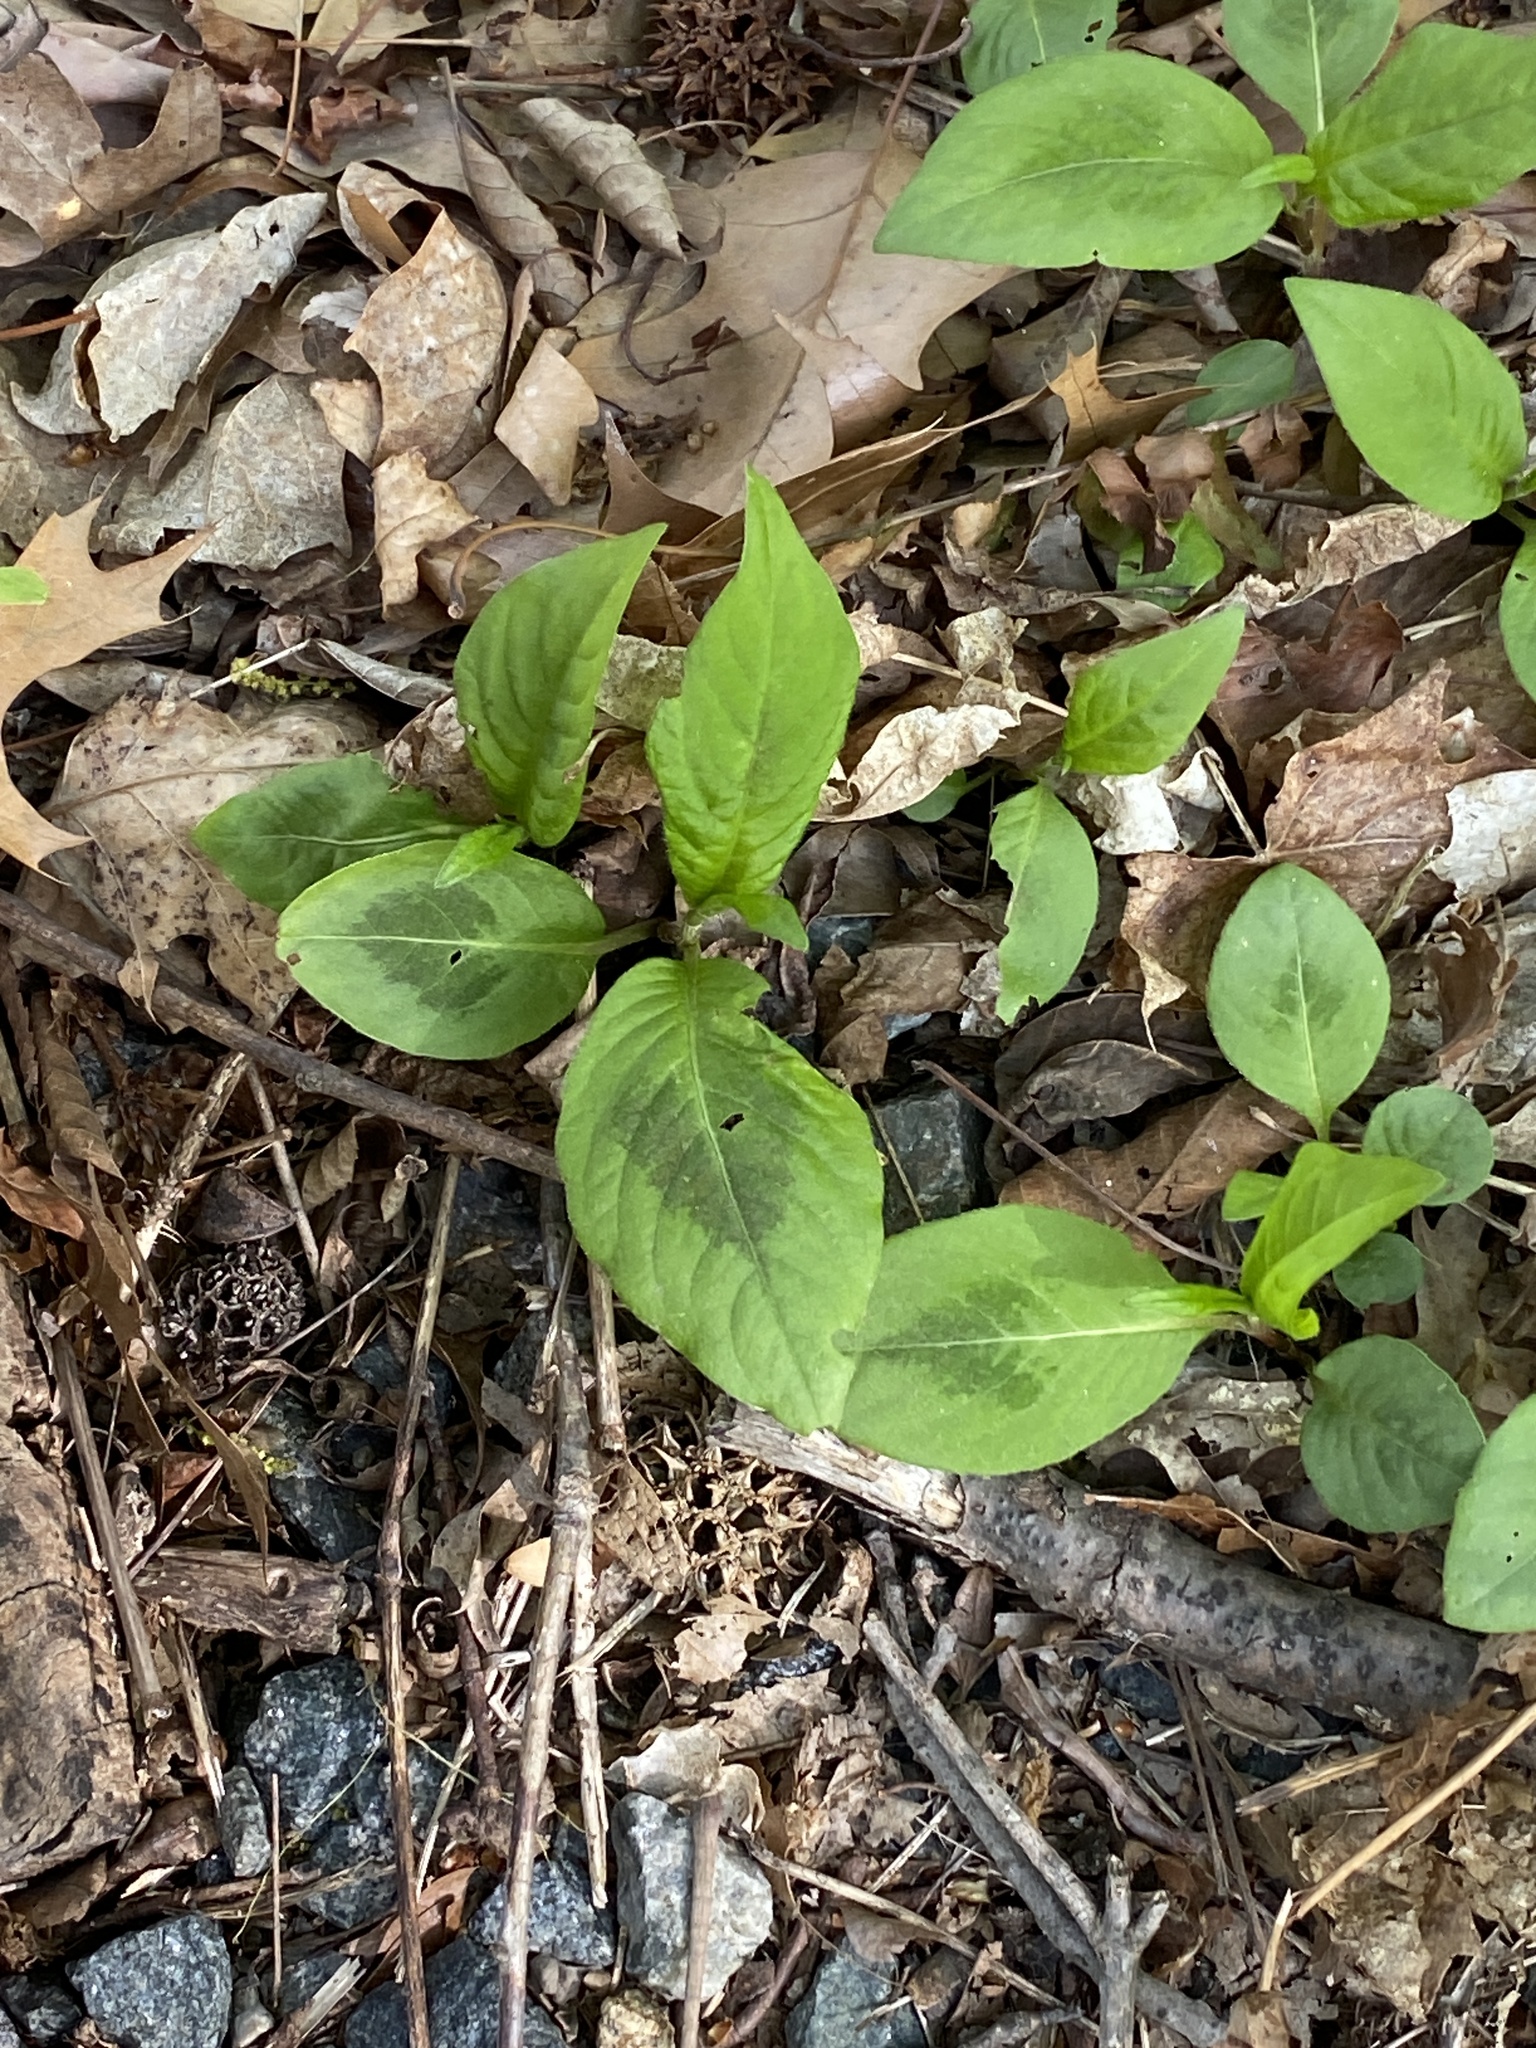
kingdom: Plantae
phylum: Tracheophyta
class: Magnoliopsida
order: Caryophyllales
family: Polygonaceae
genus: Persicaria
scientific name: Persicaria virginiana
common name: Jumpseed
